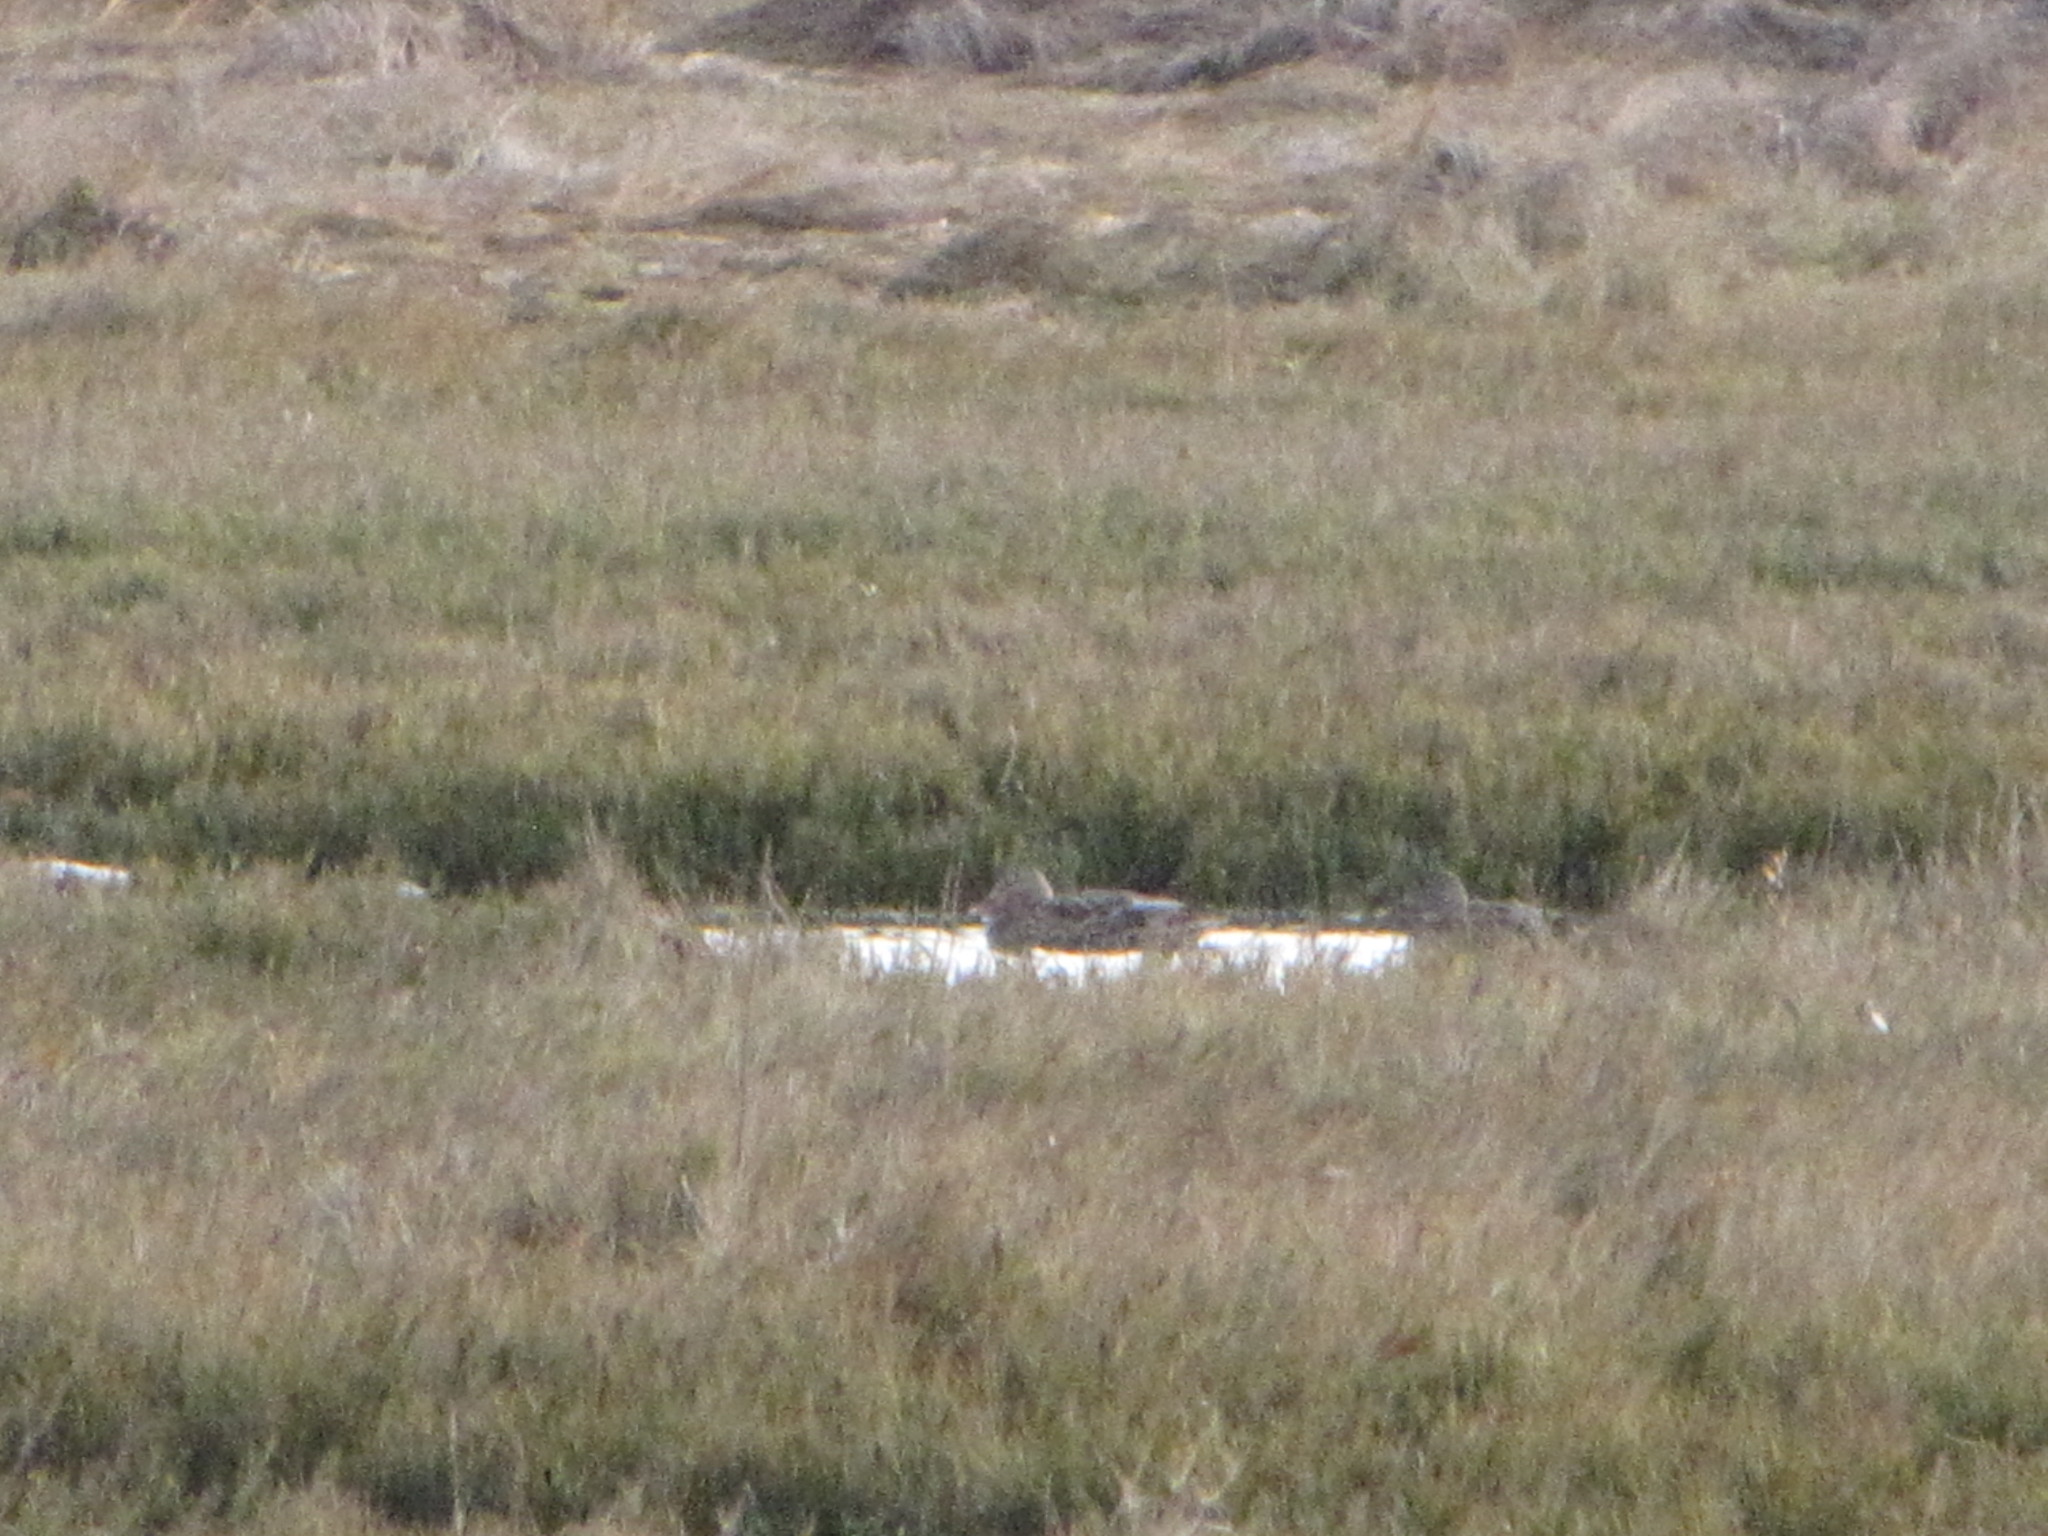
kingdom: Animalia
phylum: Chordata
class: Aves
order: Anseriformes
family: Anatidae
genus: Anas
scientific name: Anas platyrhynchos
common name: Mallard
